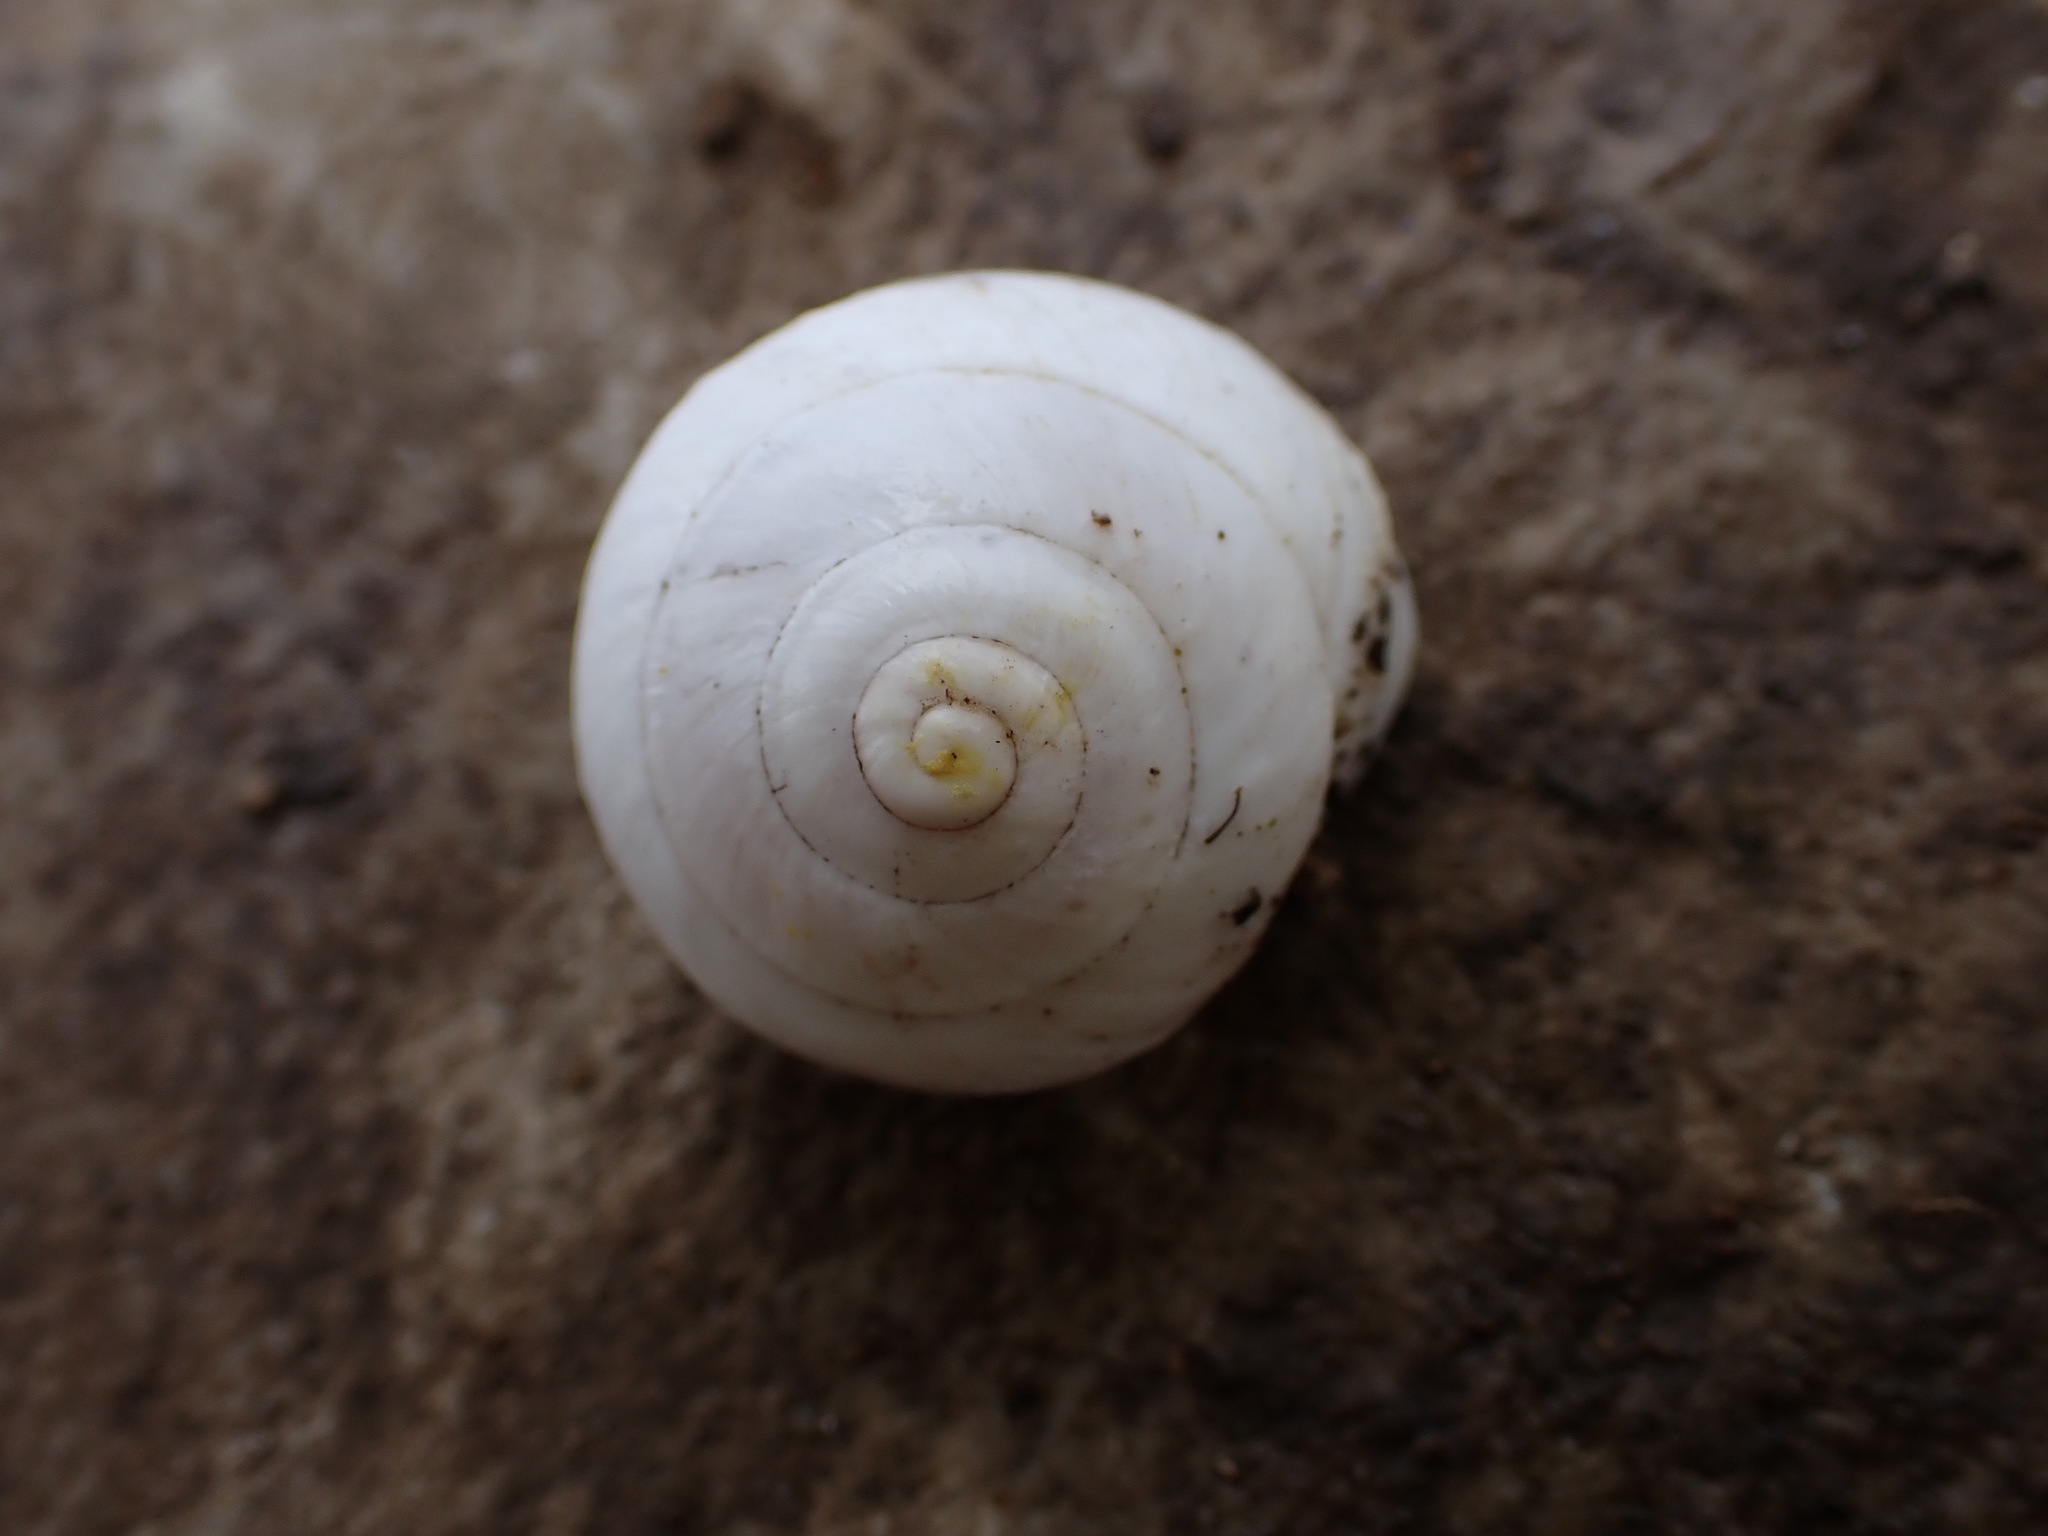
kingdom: Animalia
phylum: Mollusca
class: Gastropoda
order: Stylommatophora
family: Sphincterochilidae
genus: Sphincterochila
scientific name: Sphincterochila candidissima
